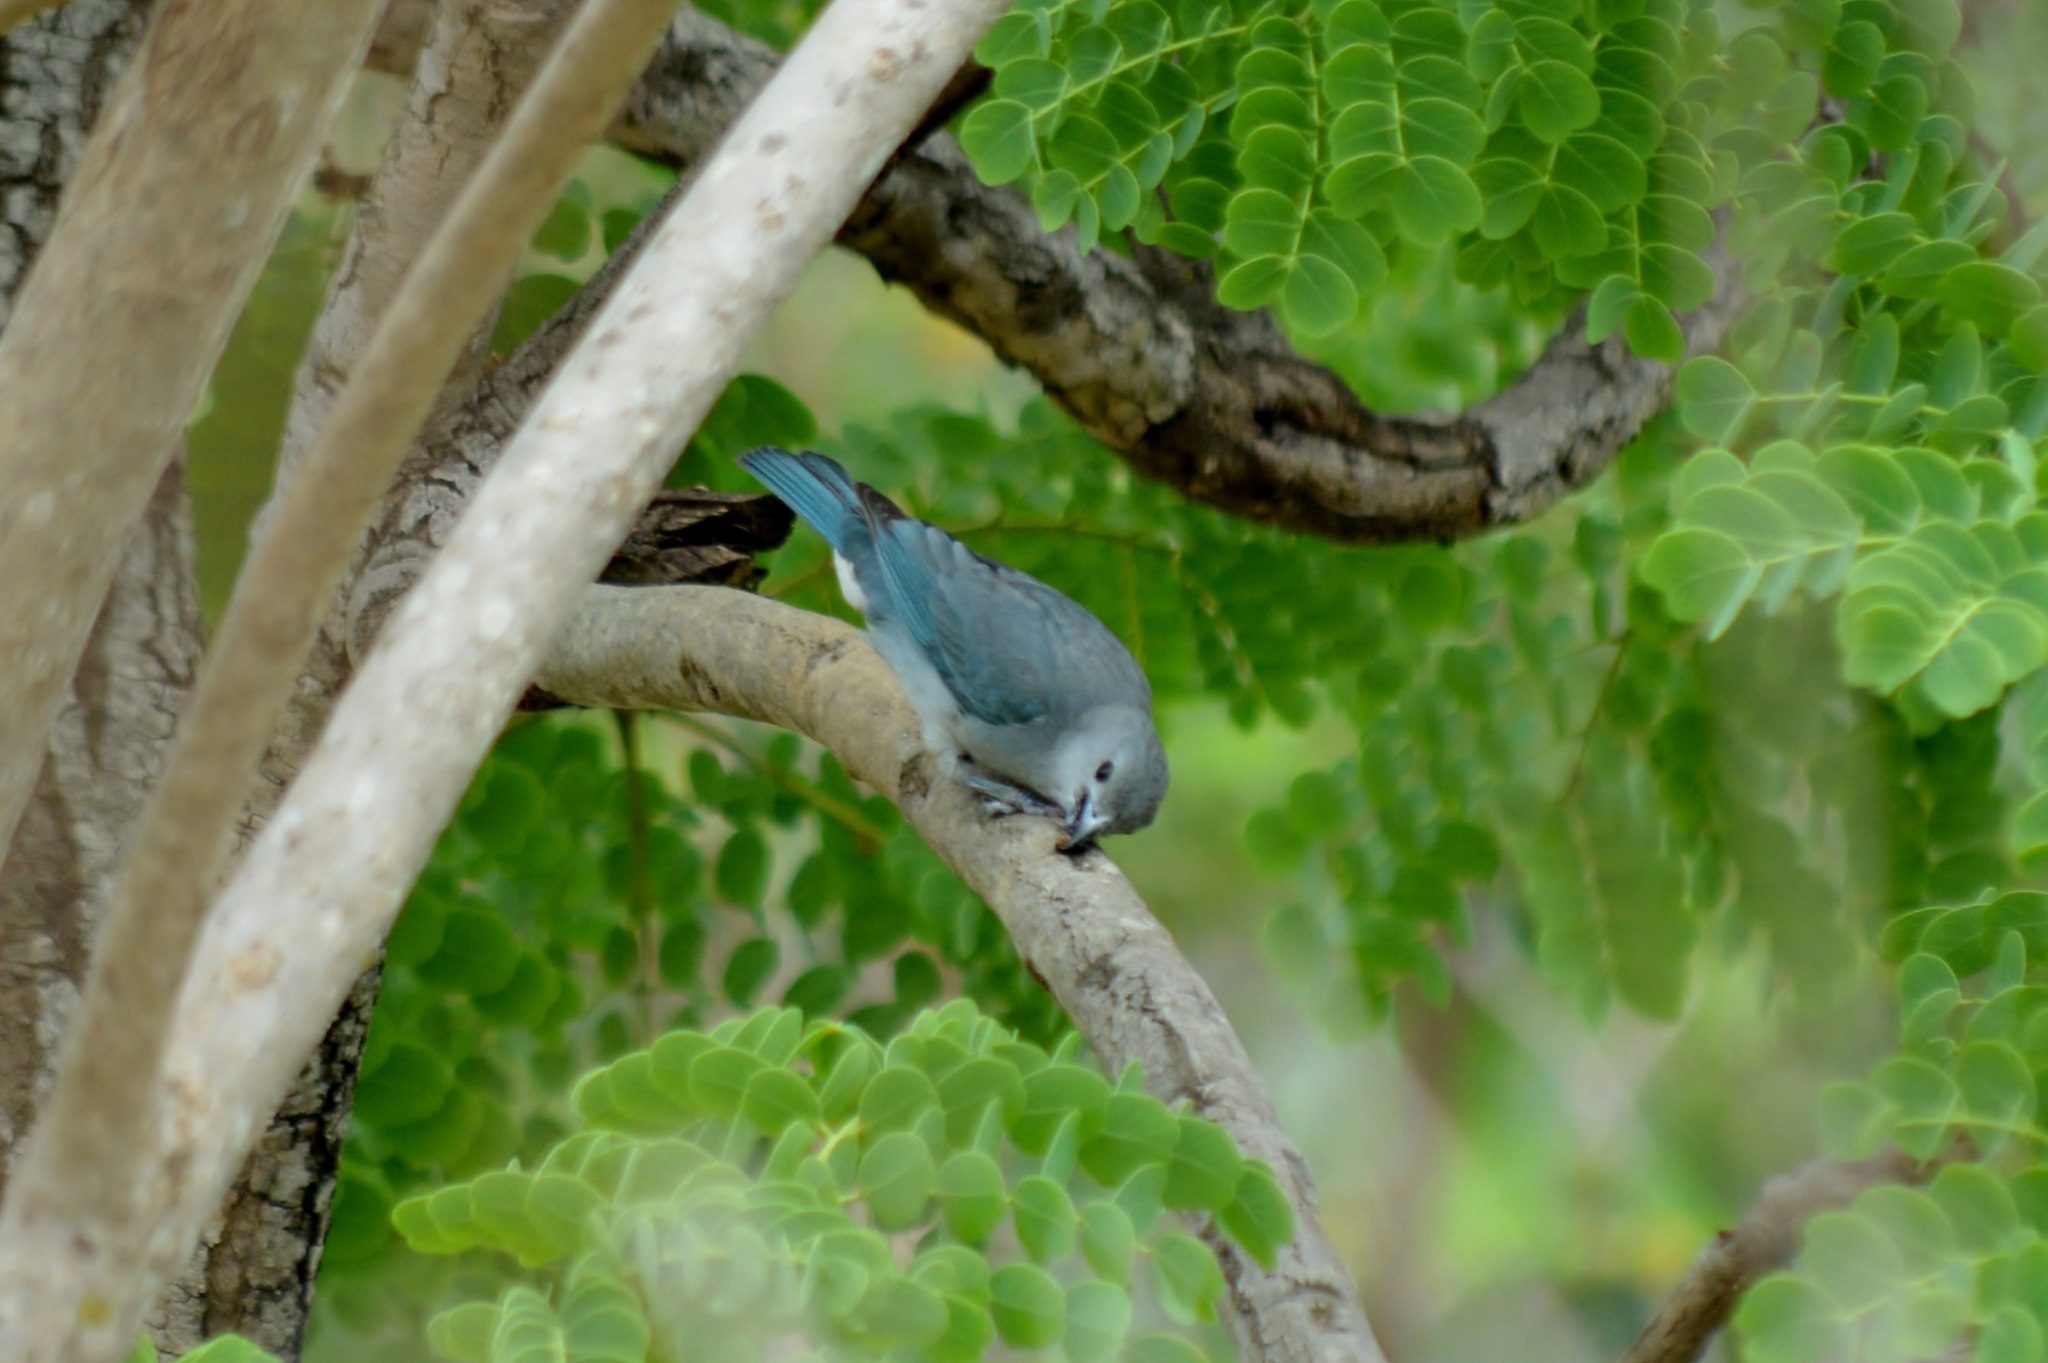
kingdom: Animalia
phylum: Chordata
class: Aves
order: Passeriformes
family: Thraupidae
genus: Thraupis
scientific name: Thraupis sayaca
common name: Sayaca tanager
